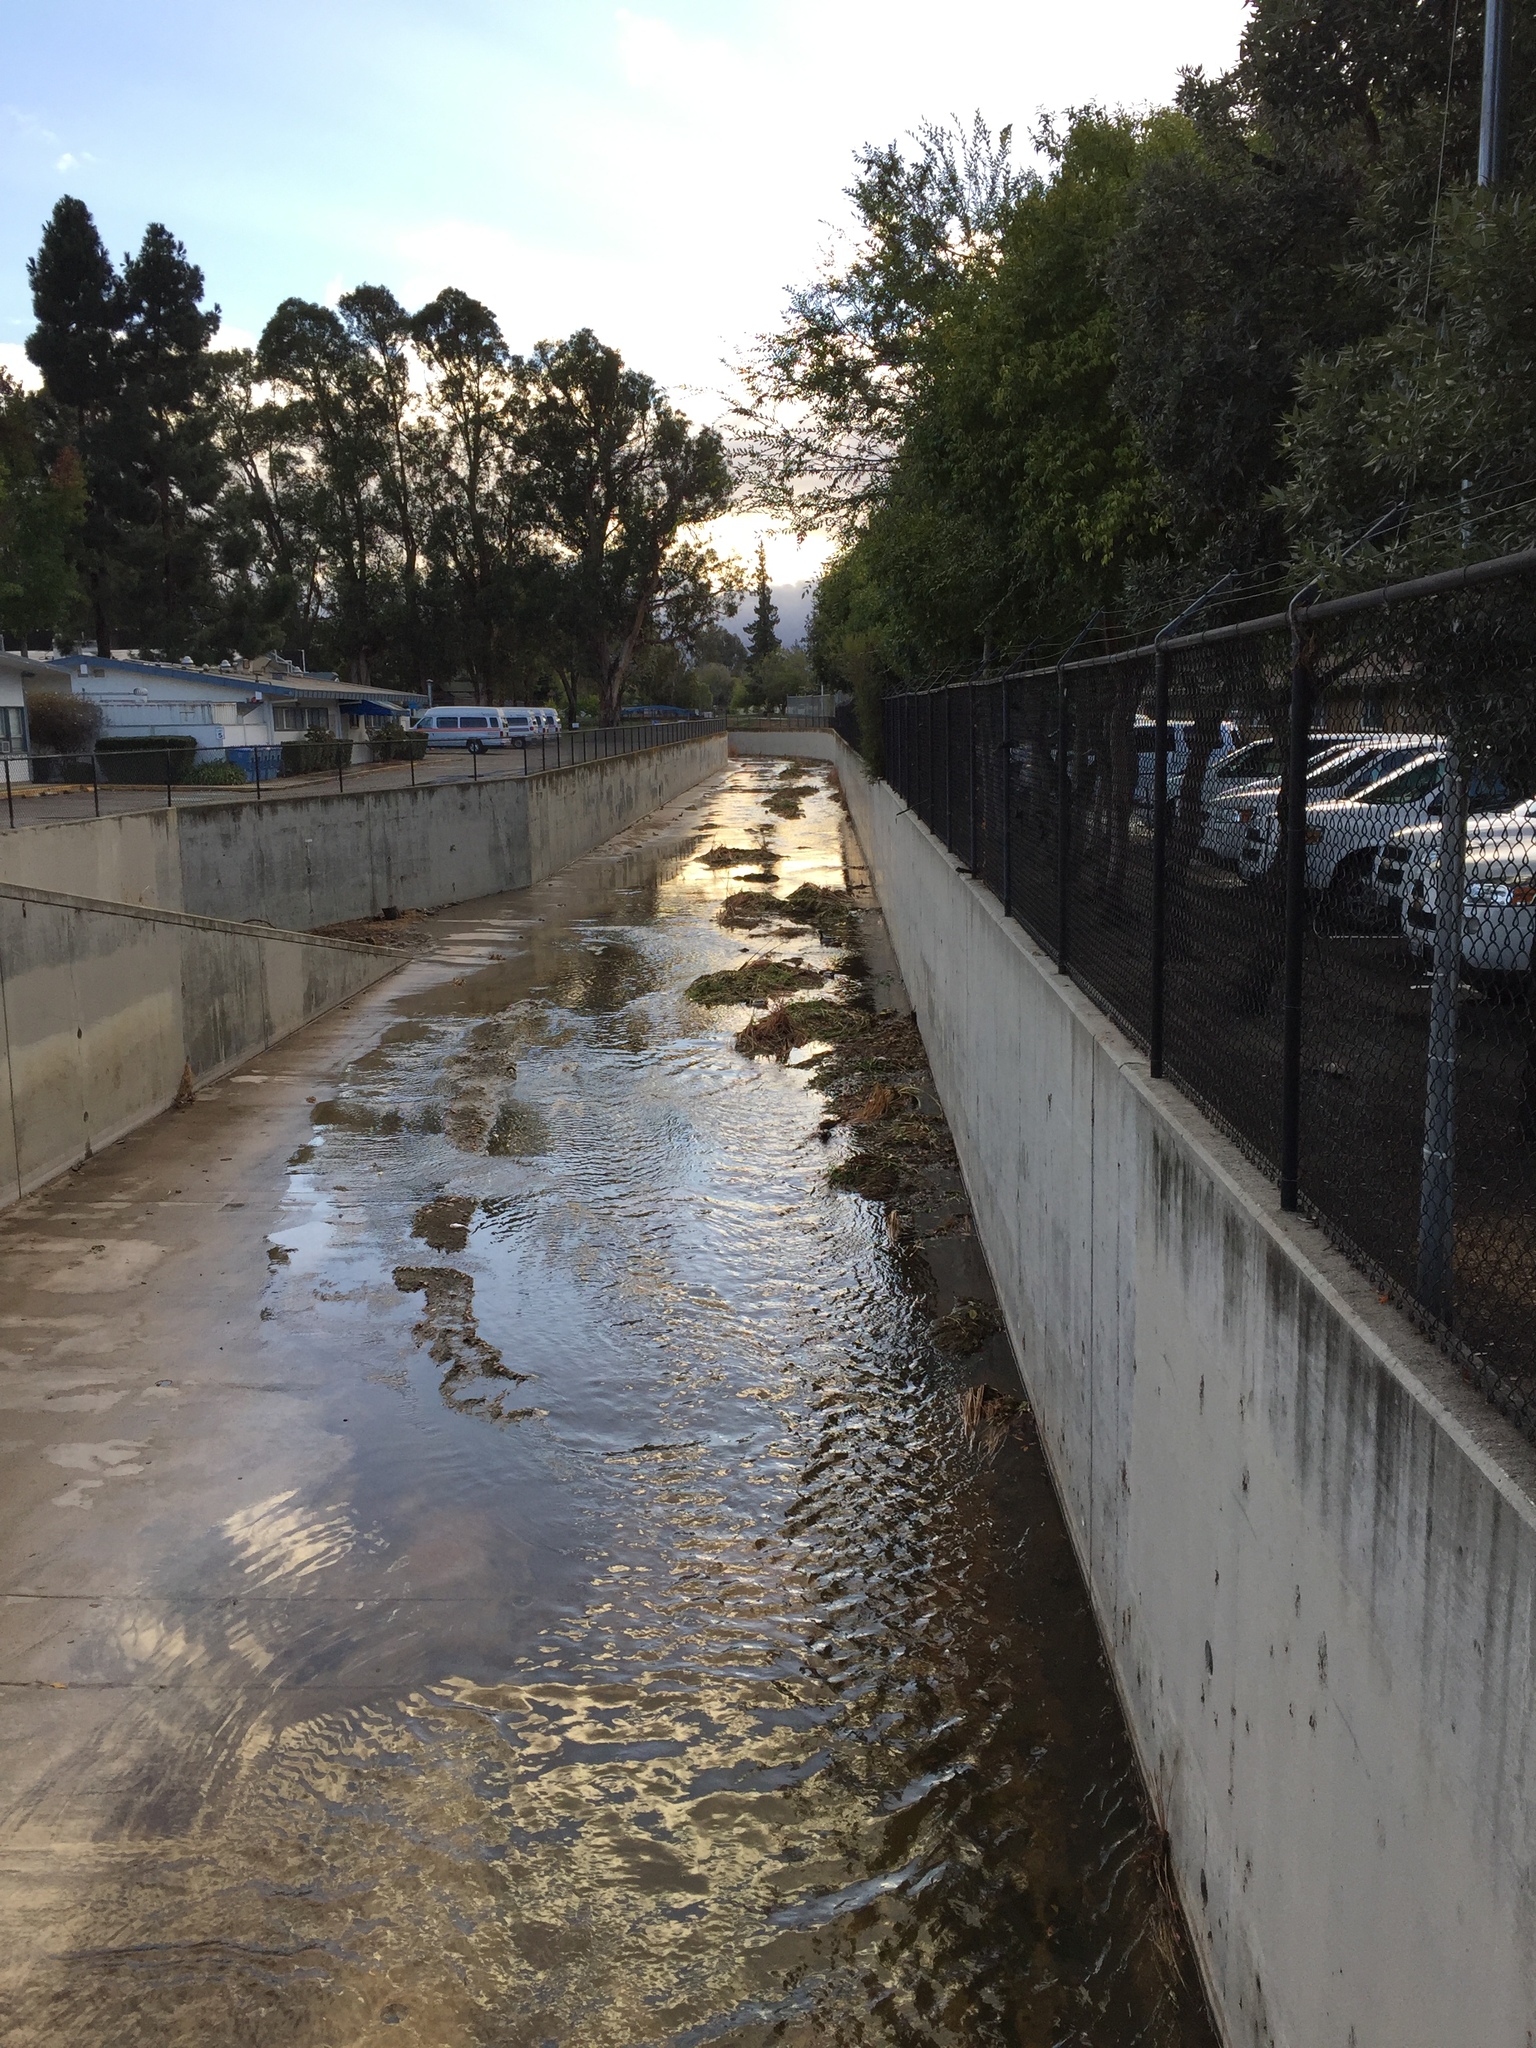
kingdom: Animalia
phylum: Chordata
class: Aves
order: Anseriformes
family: Anatidae
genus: Anas
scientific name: Anas platyrhynchos
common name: Mallard
